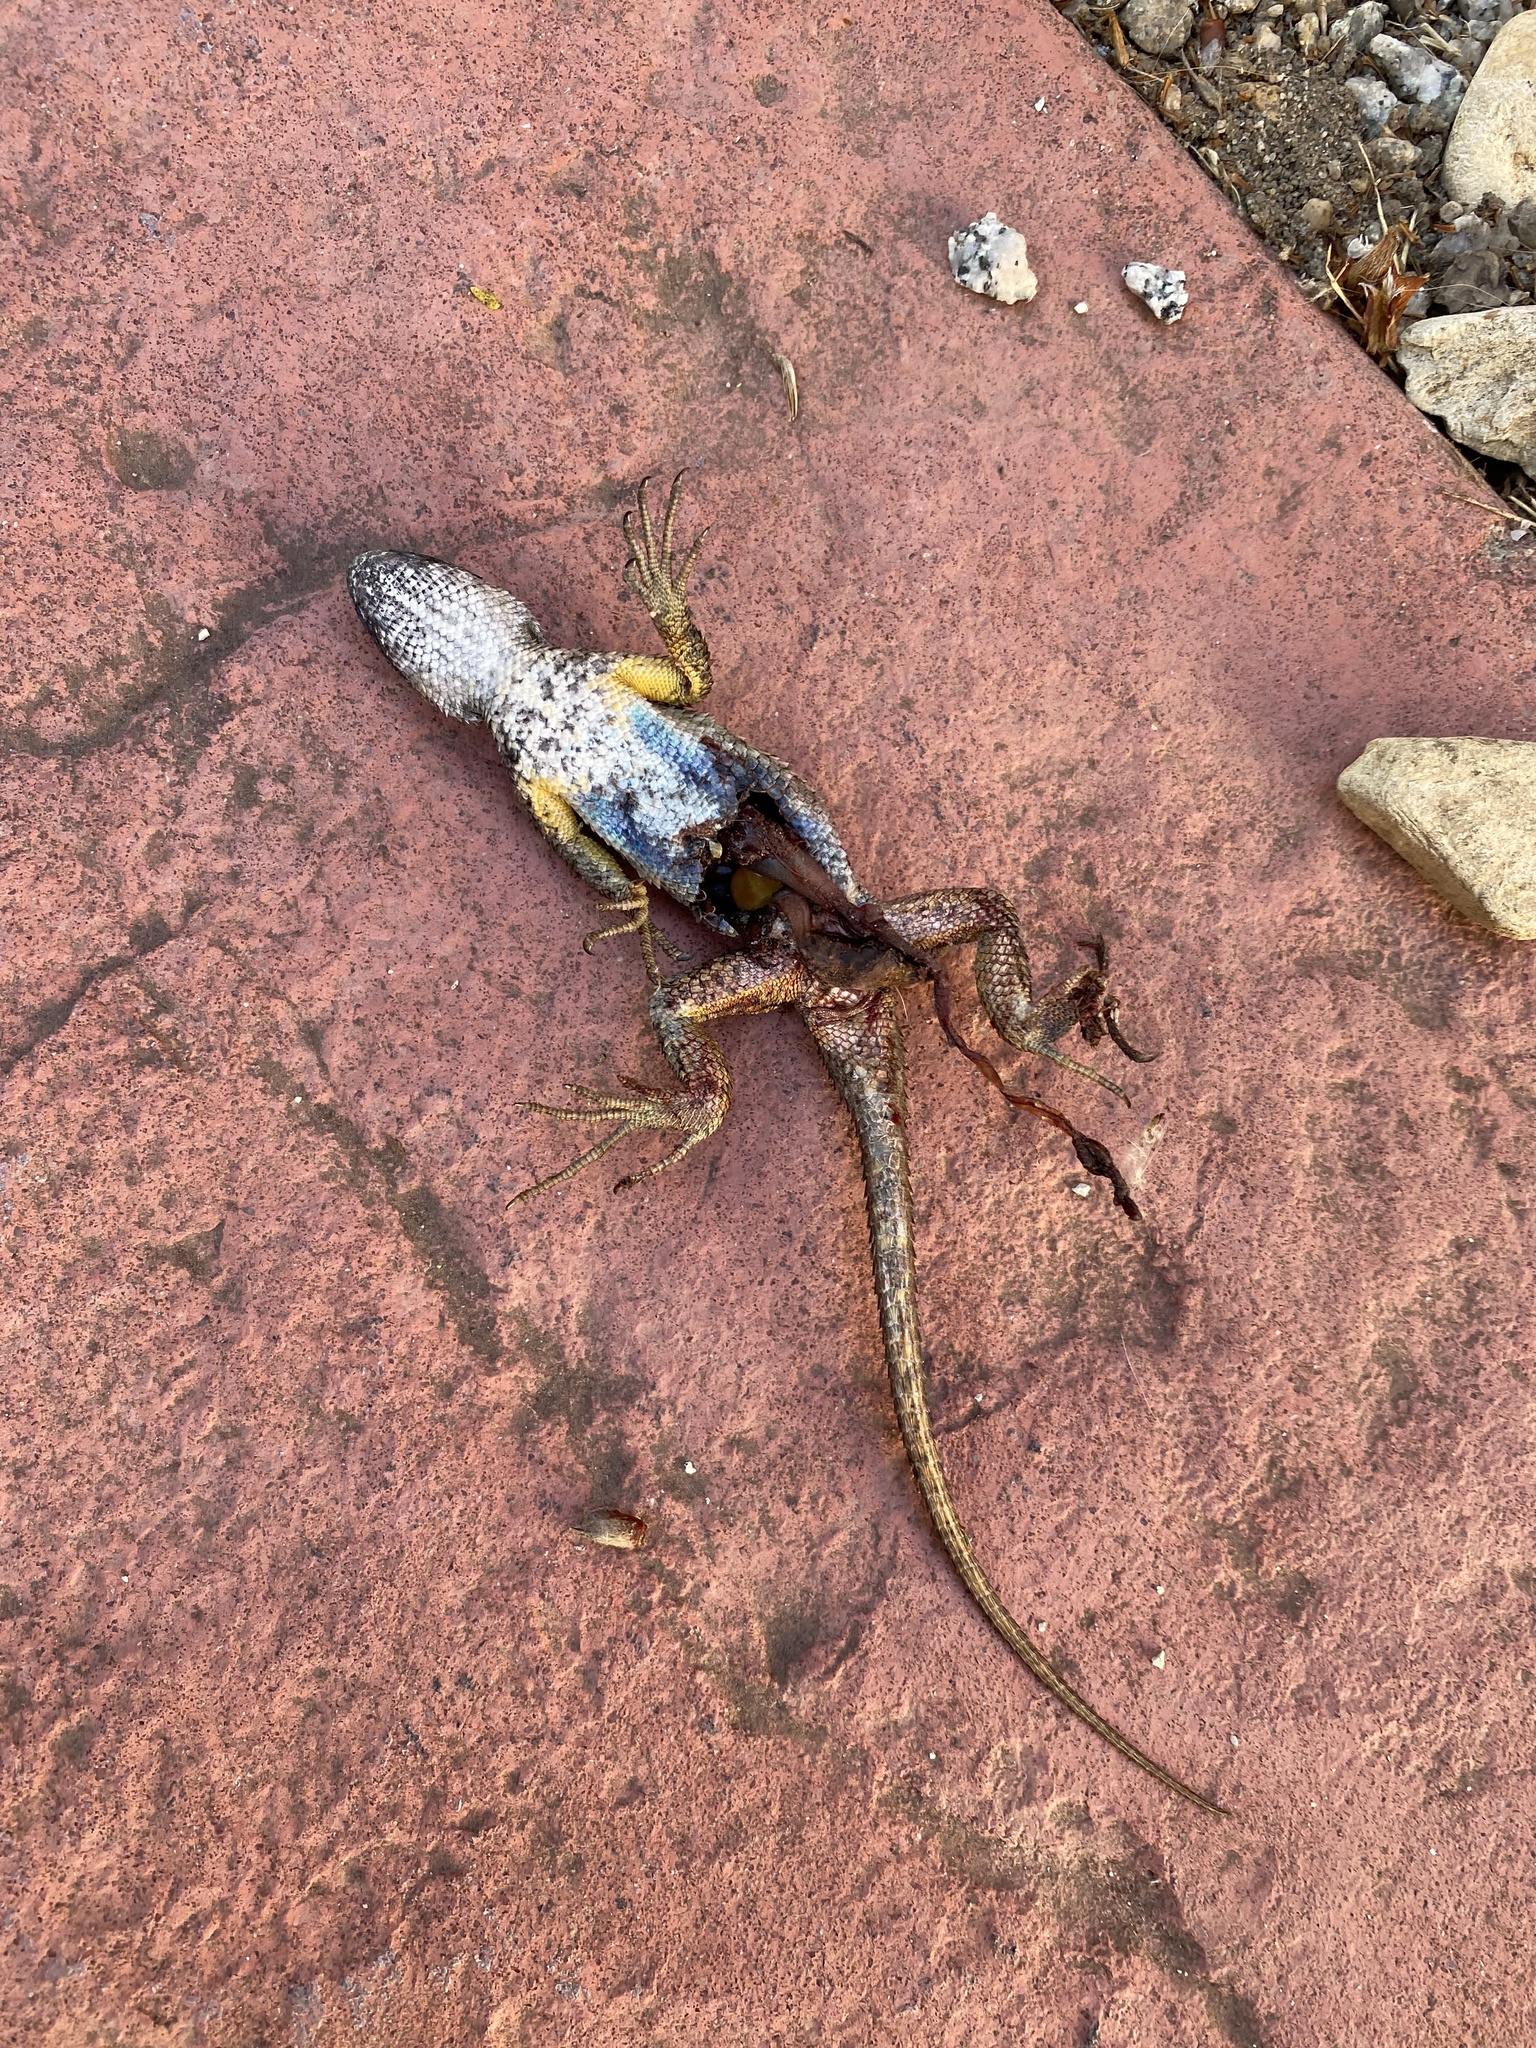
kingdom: Animalia
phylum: Chordata
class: Squamata
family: Phrynosomatidae
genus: Sceloporus
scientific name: Sceloporus occidentalis
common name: Western fence lizard
